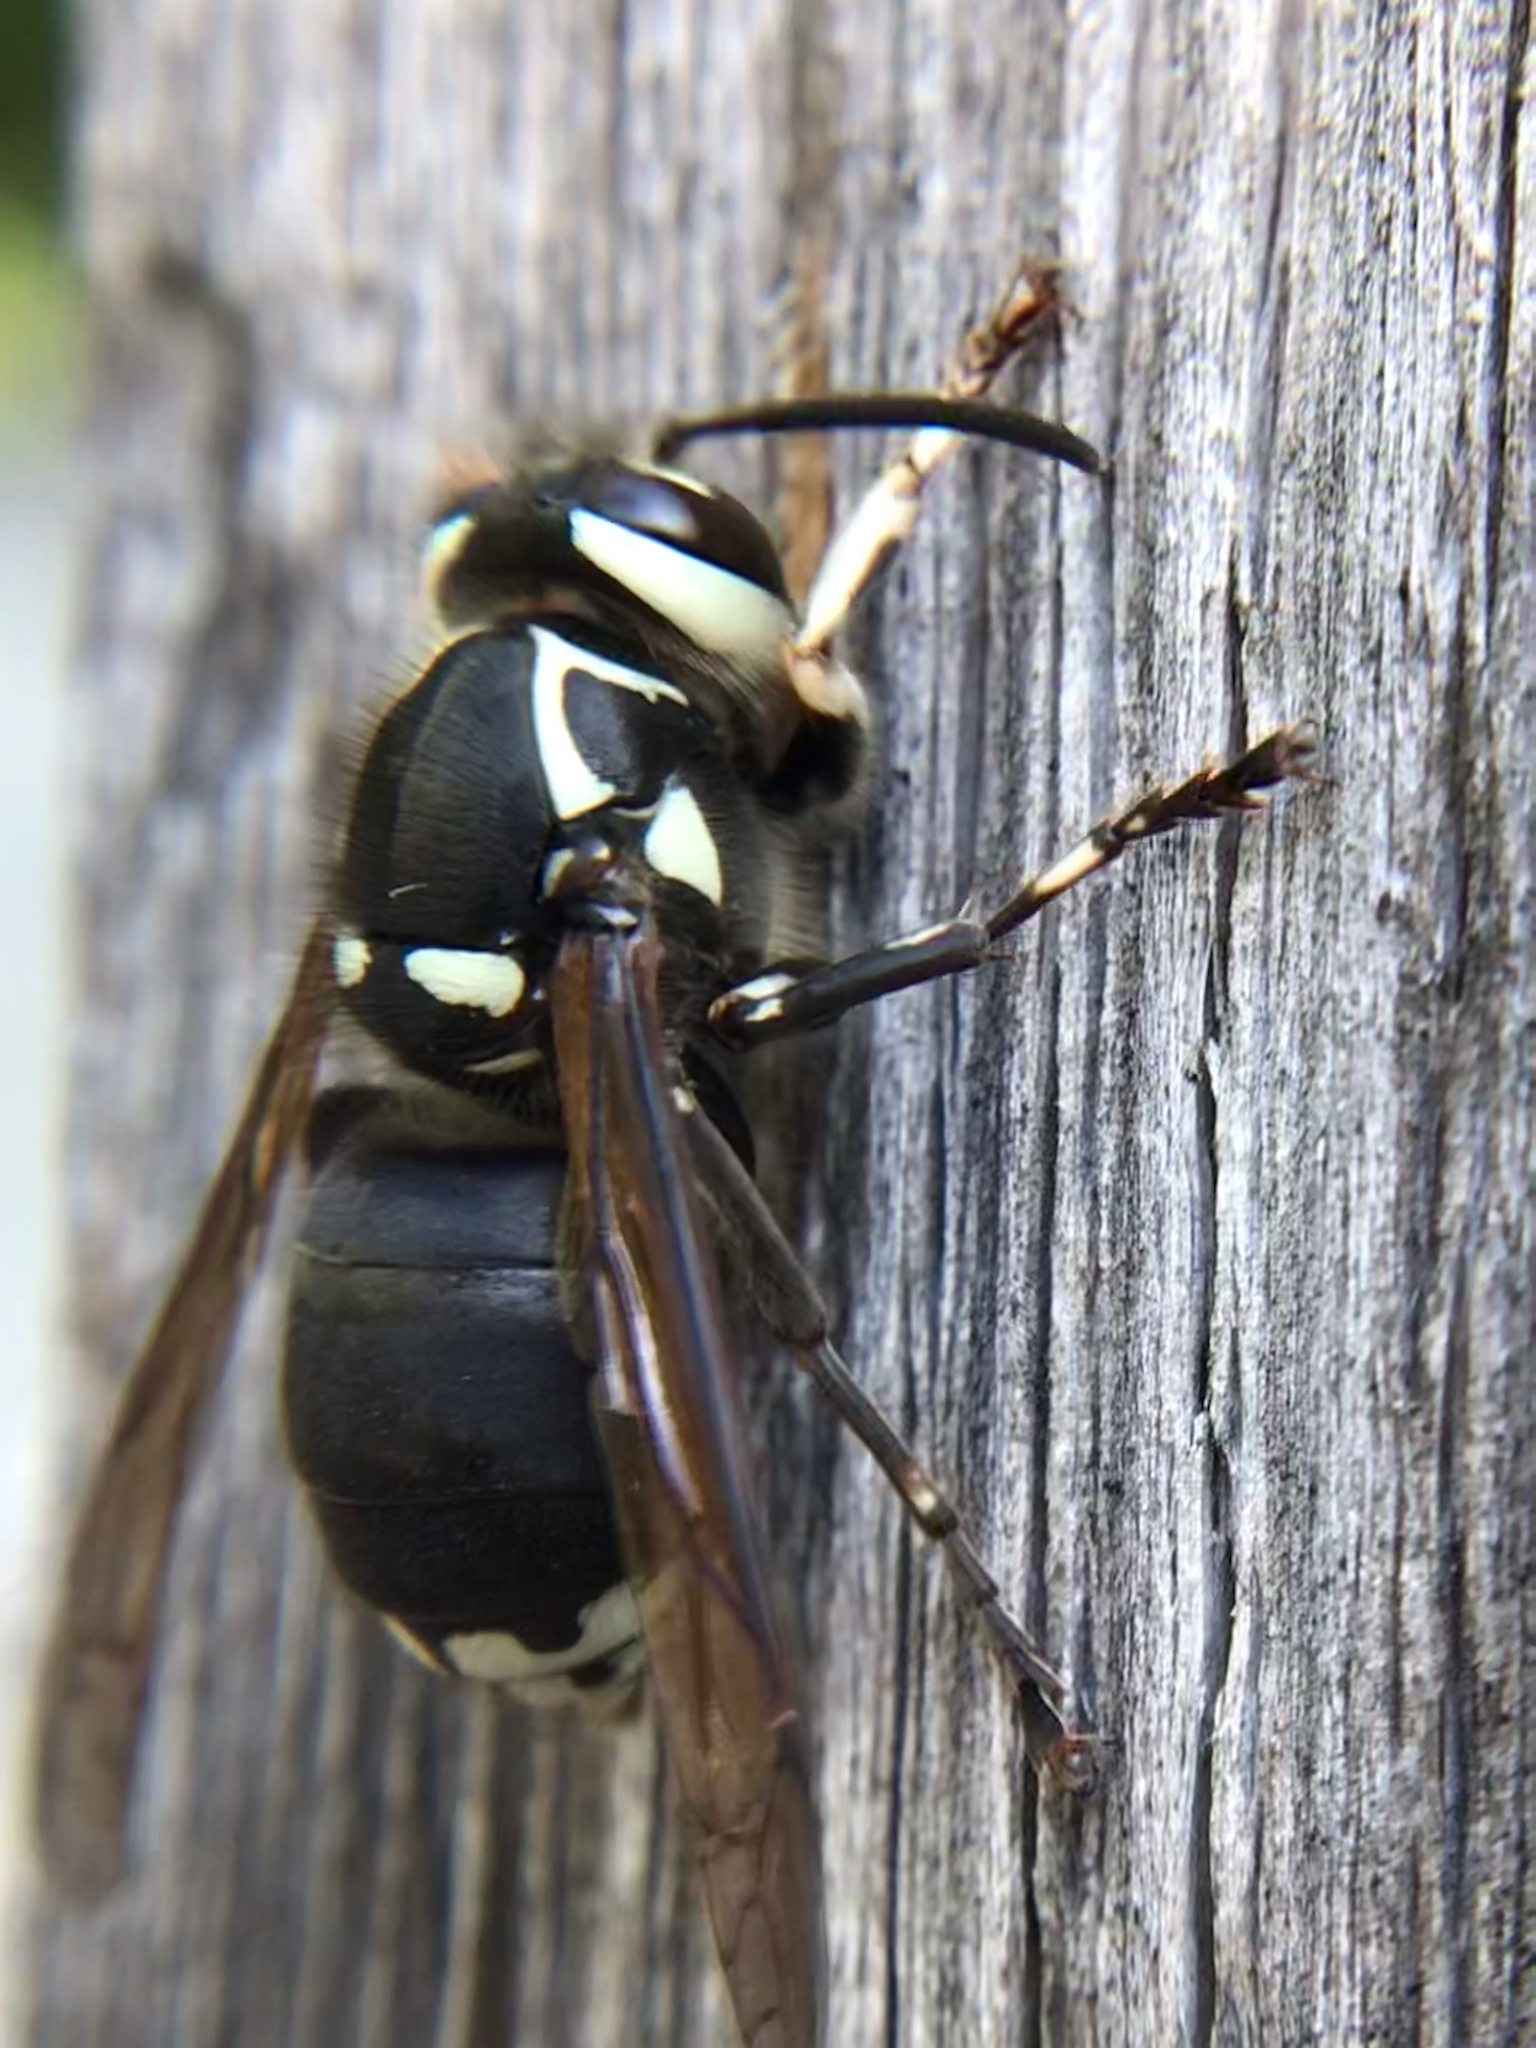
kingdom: Animalia
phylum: Arthropoda
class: Insecta
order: Hymenoptera
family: Vespidae
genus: Dolichovespula
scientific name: Dolichovespula maculata
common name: Bald-faced hornet
